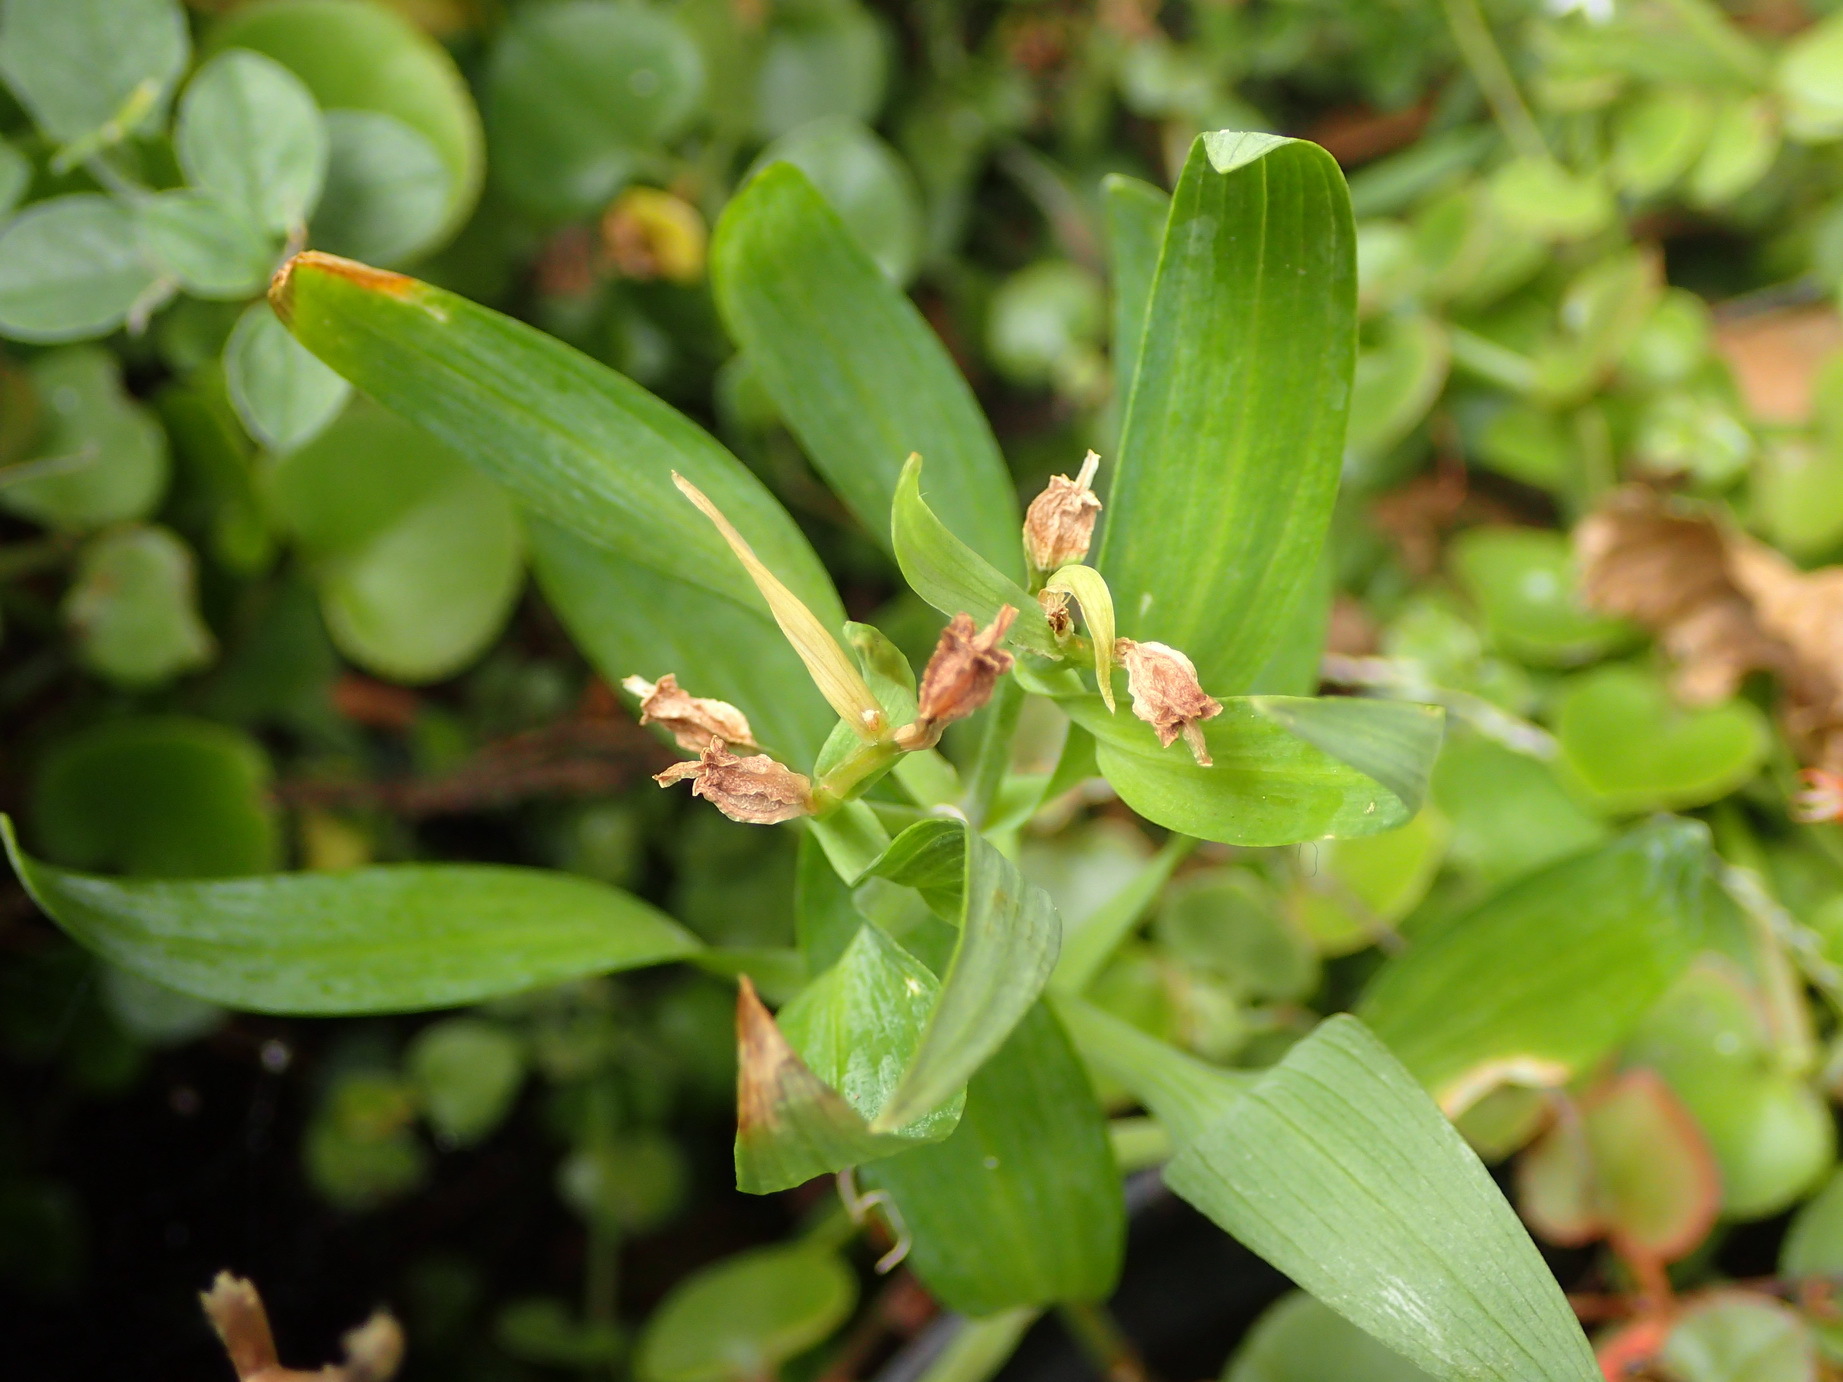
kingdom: Plantae
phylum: Tracheophyta
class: Liliopsida
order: Liliales
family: Alstroemeriaceae
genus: Alstroemeria
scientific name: Alstroemeria psittacina
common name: Peruvian-lily
